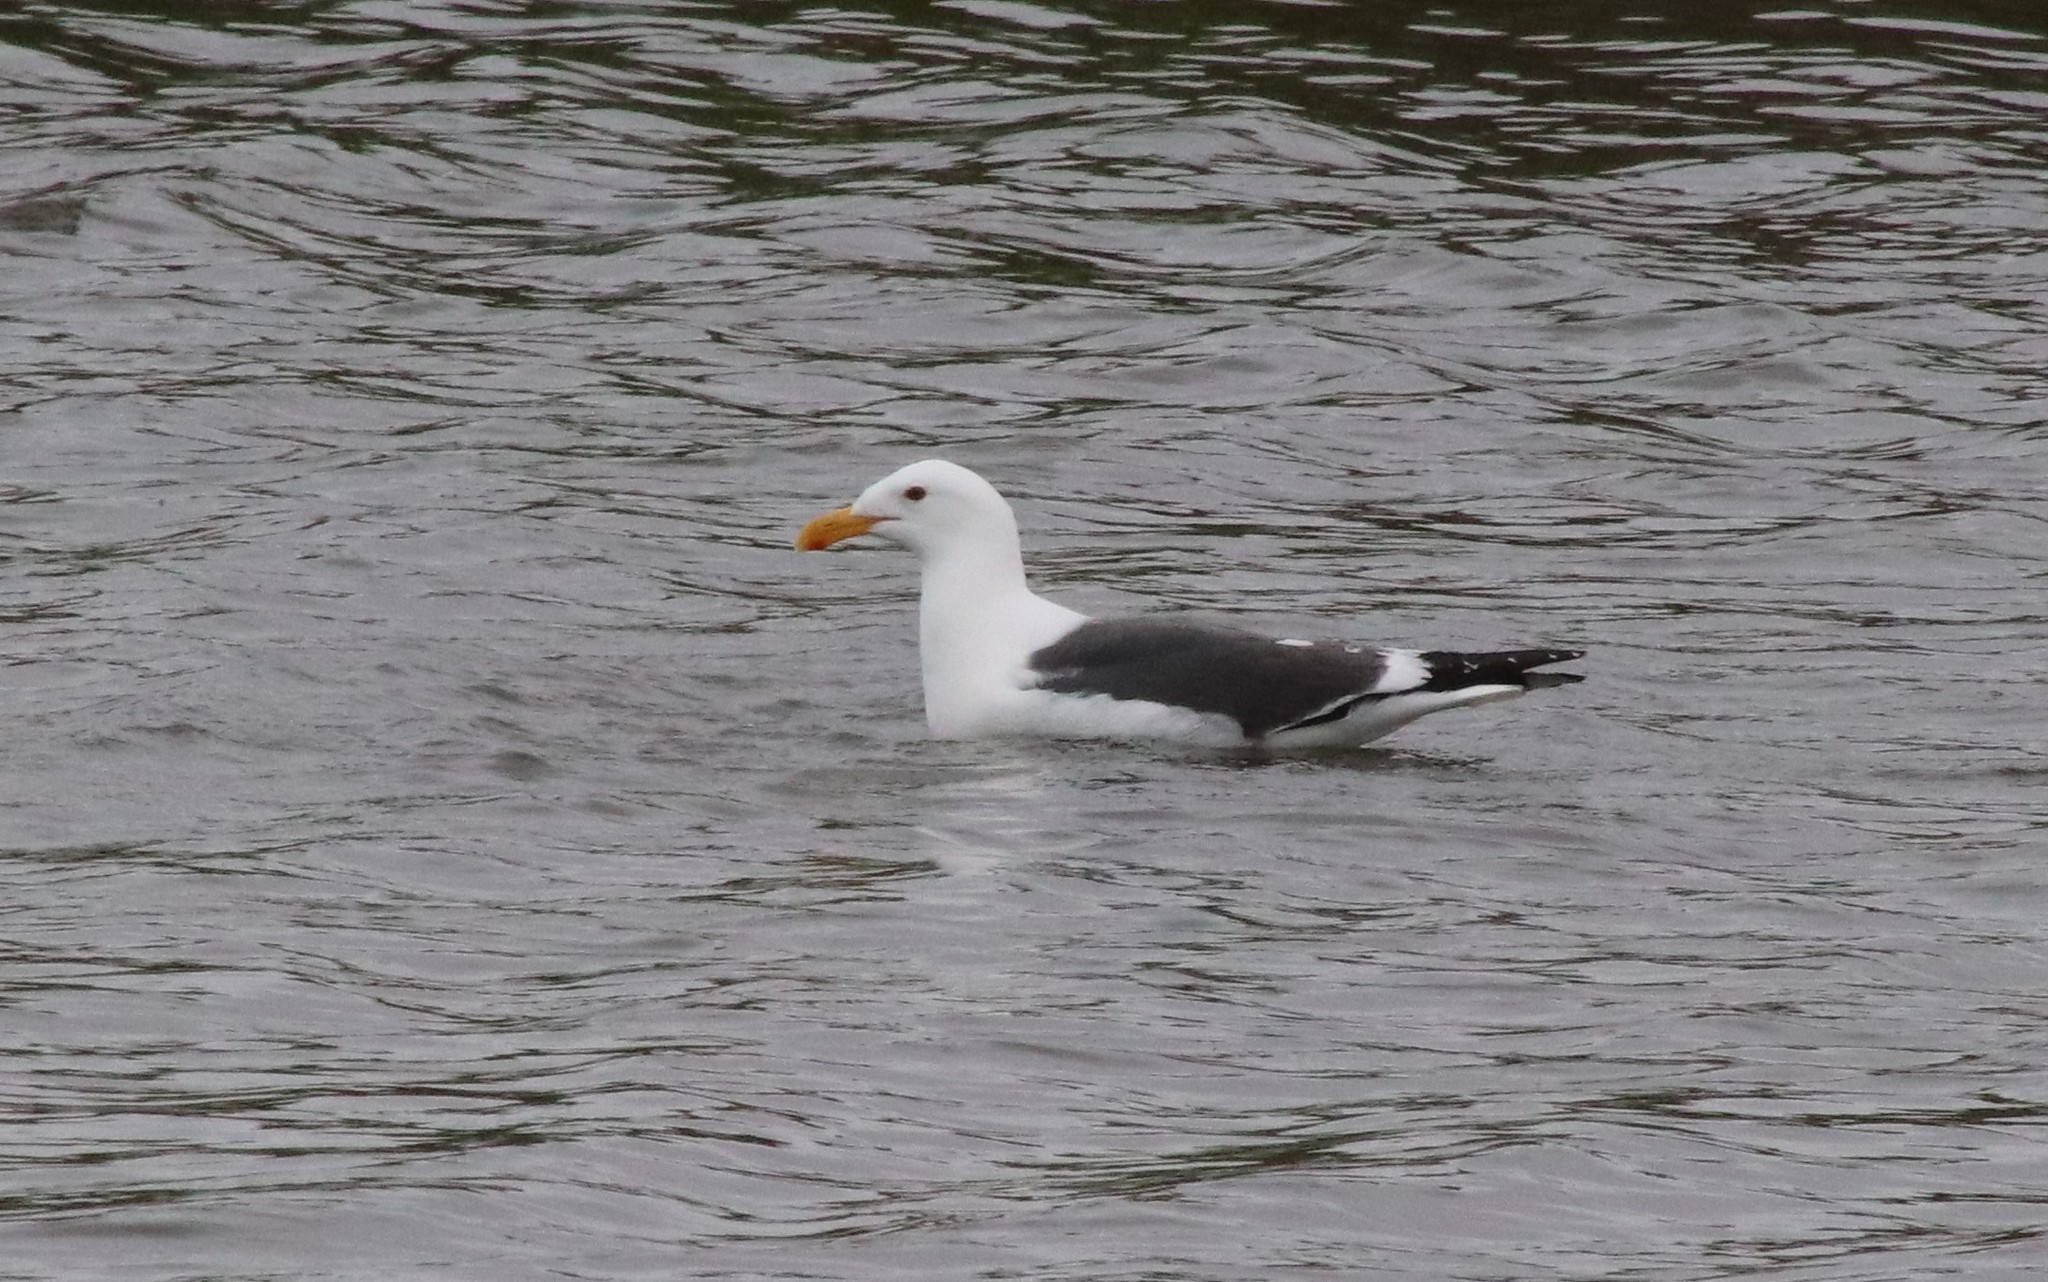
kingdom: Animalia
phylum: Chordata
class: Aves
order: Charadriiformes
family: Laridae
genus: Larus
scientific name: Larus occidentalis
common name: Western gull
